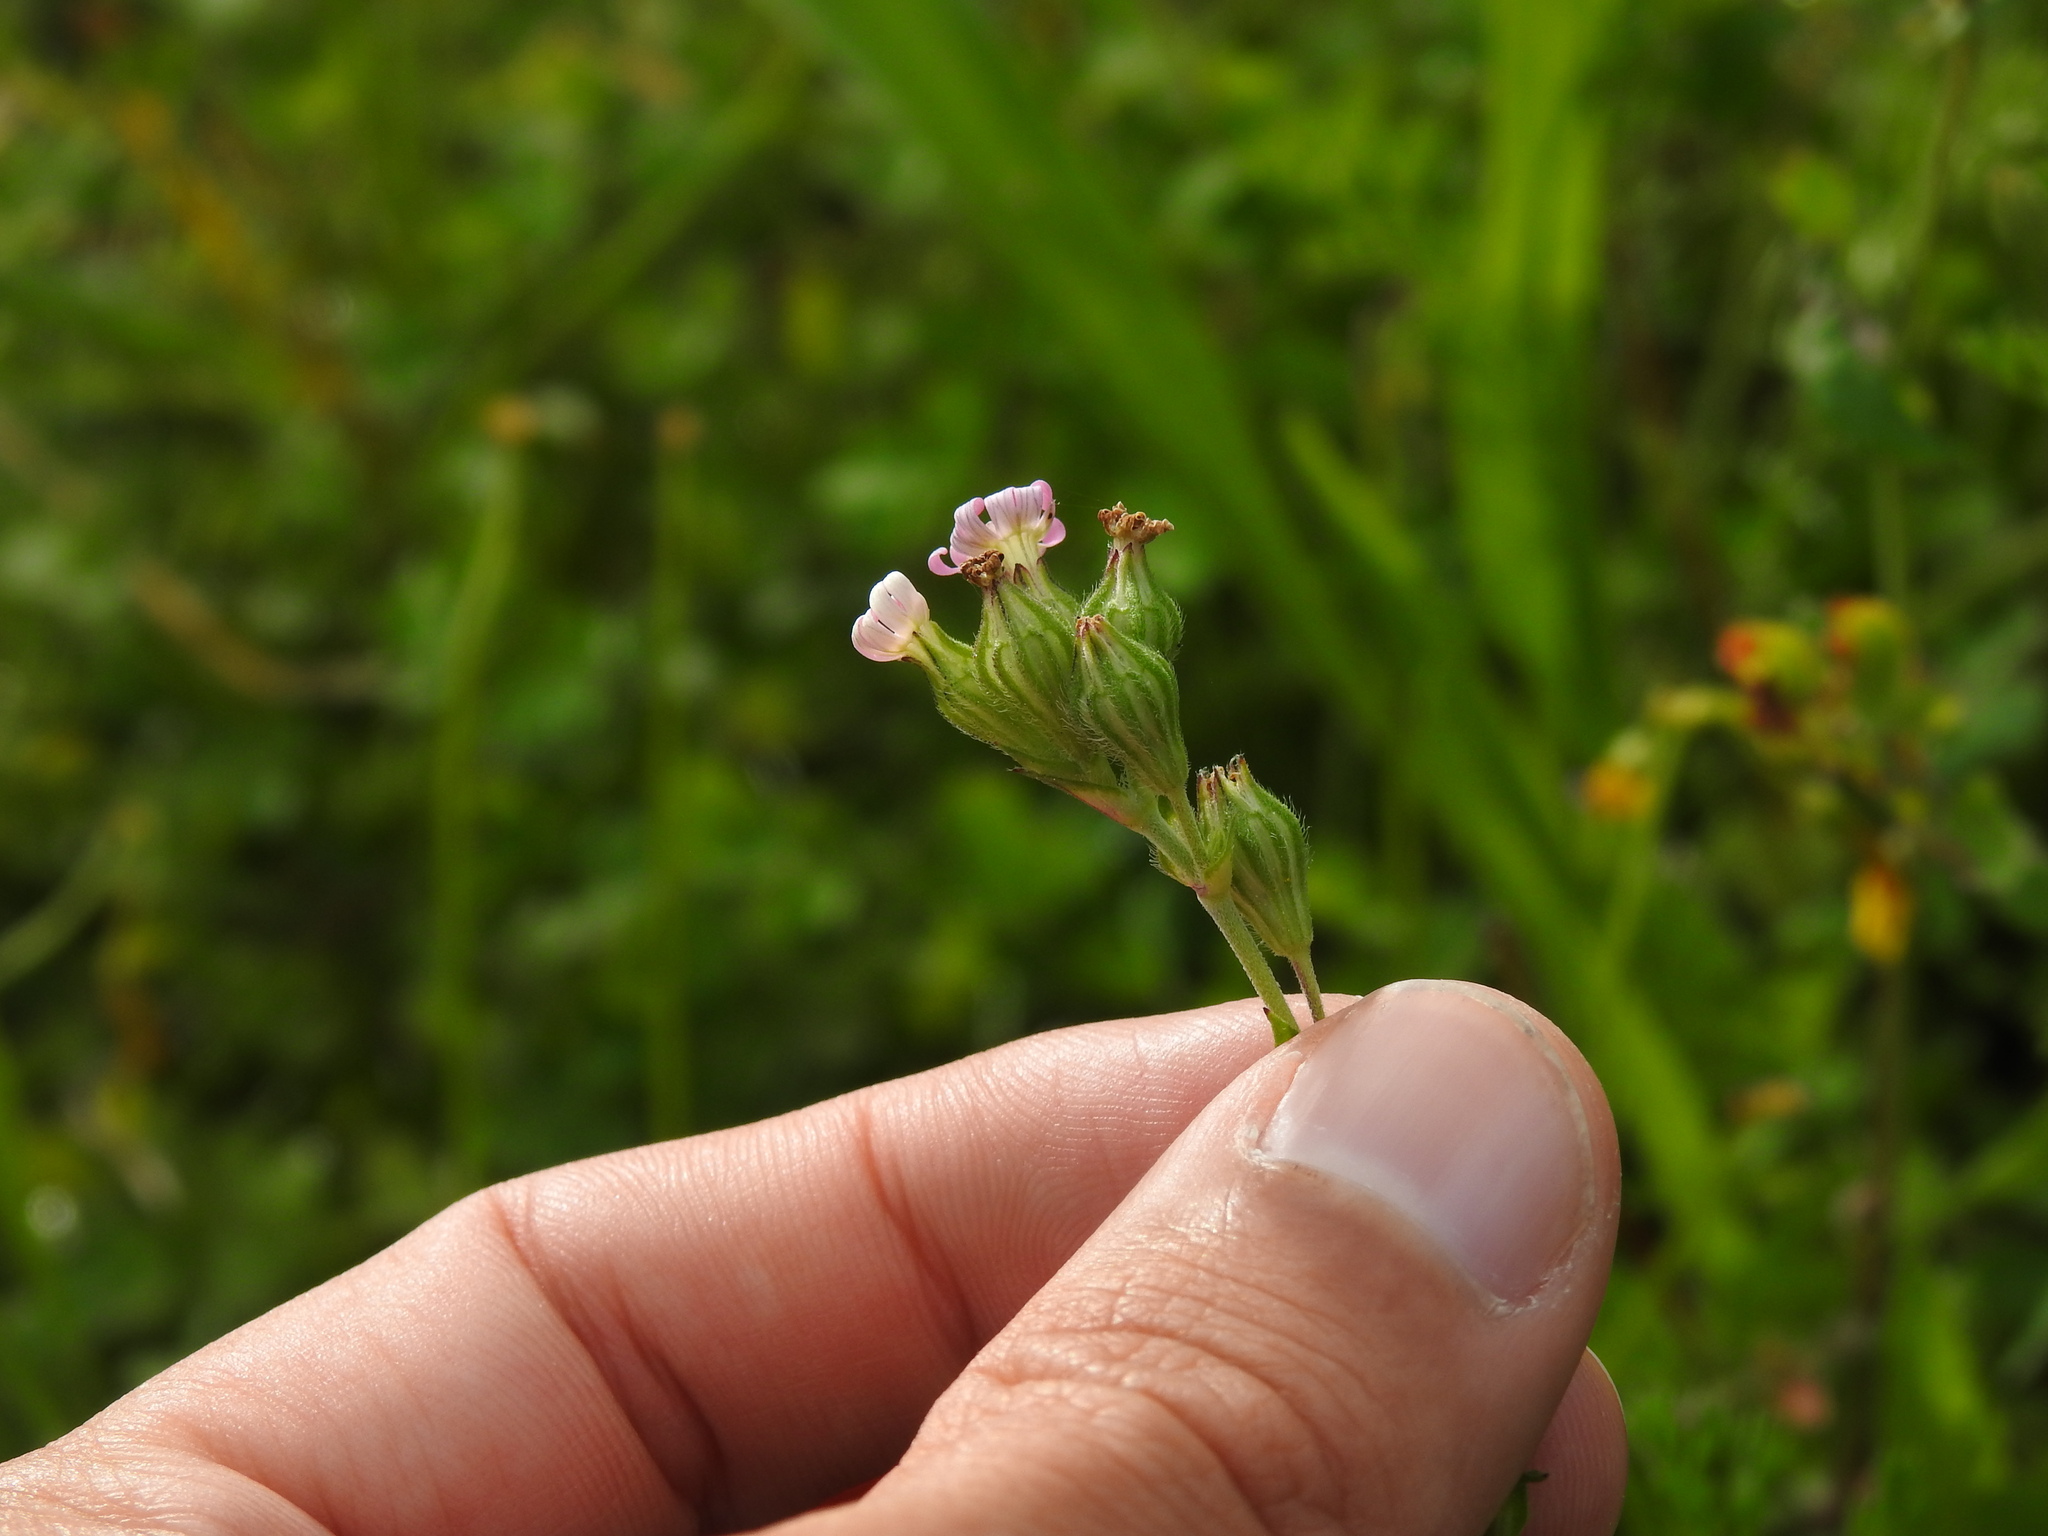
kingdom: Plantae
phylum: Tracheophyta
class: Magnoliopsida
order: Caryophyllales
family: Caryophyllaceae
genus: Silene
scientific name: Silene apetala
